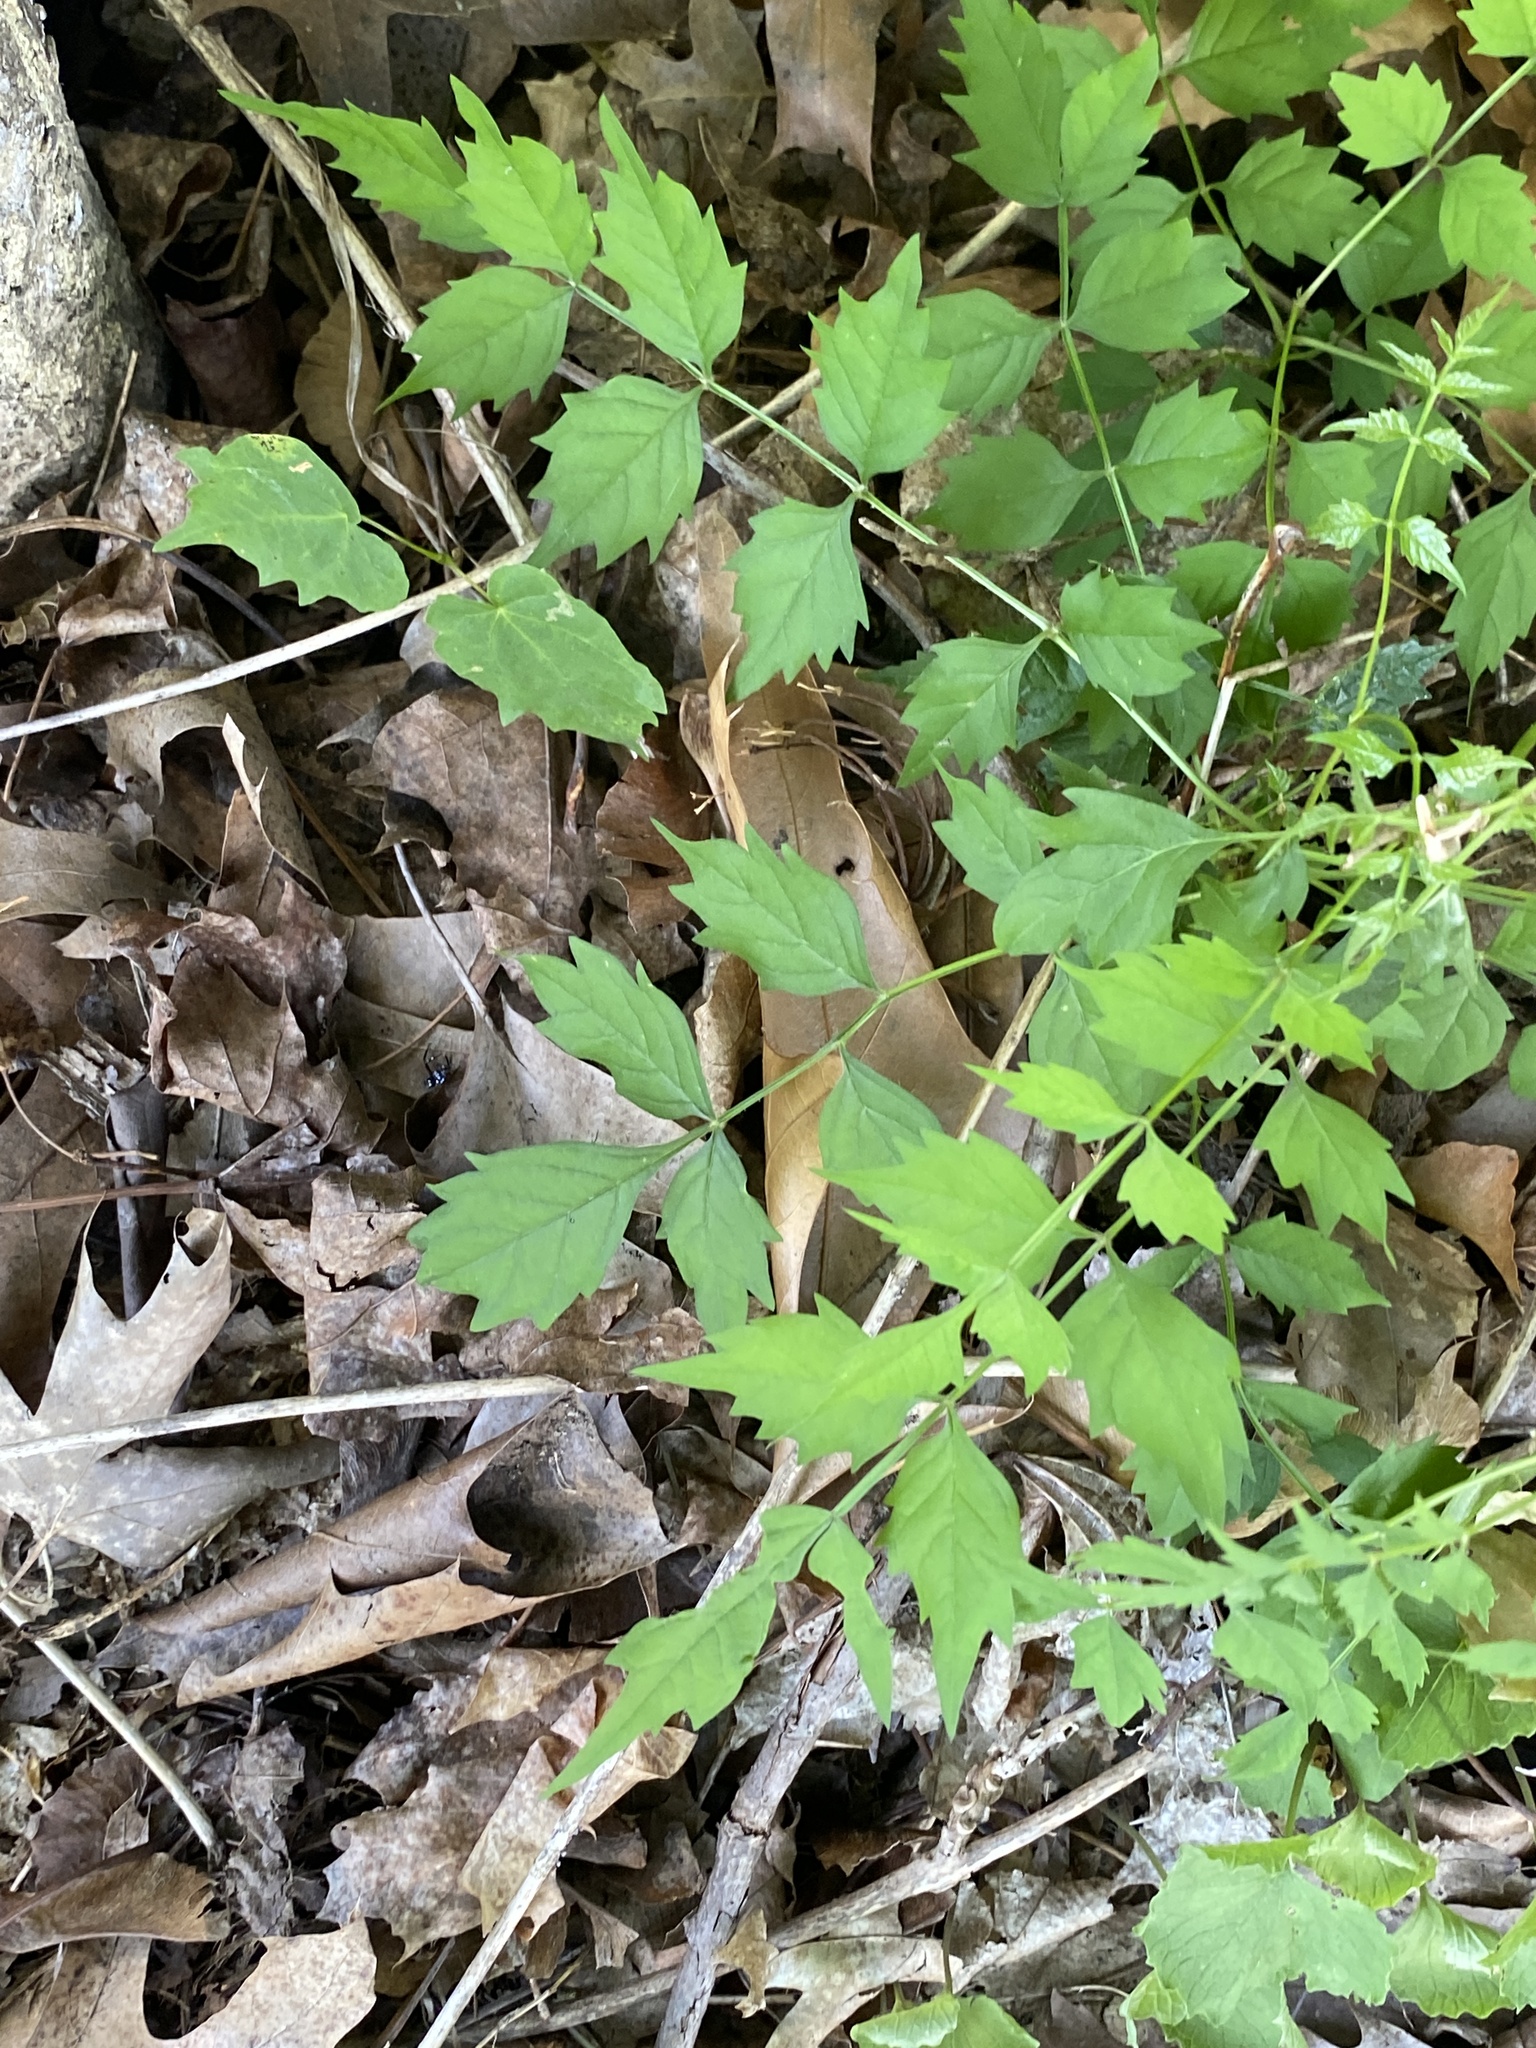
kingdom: Plantae
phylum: Tracheophyta
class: Magnoliopsida
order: Lamiales
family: Bignoniaceae
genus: Campsis
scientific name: Campsis radicans
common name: Trumpet-creeper
